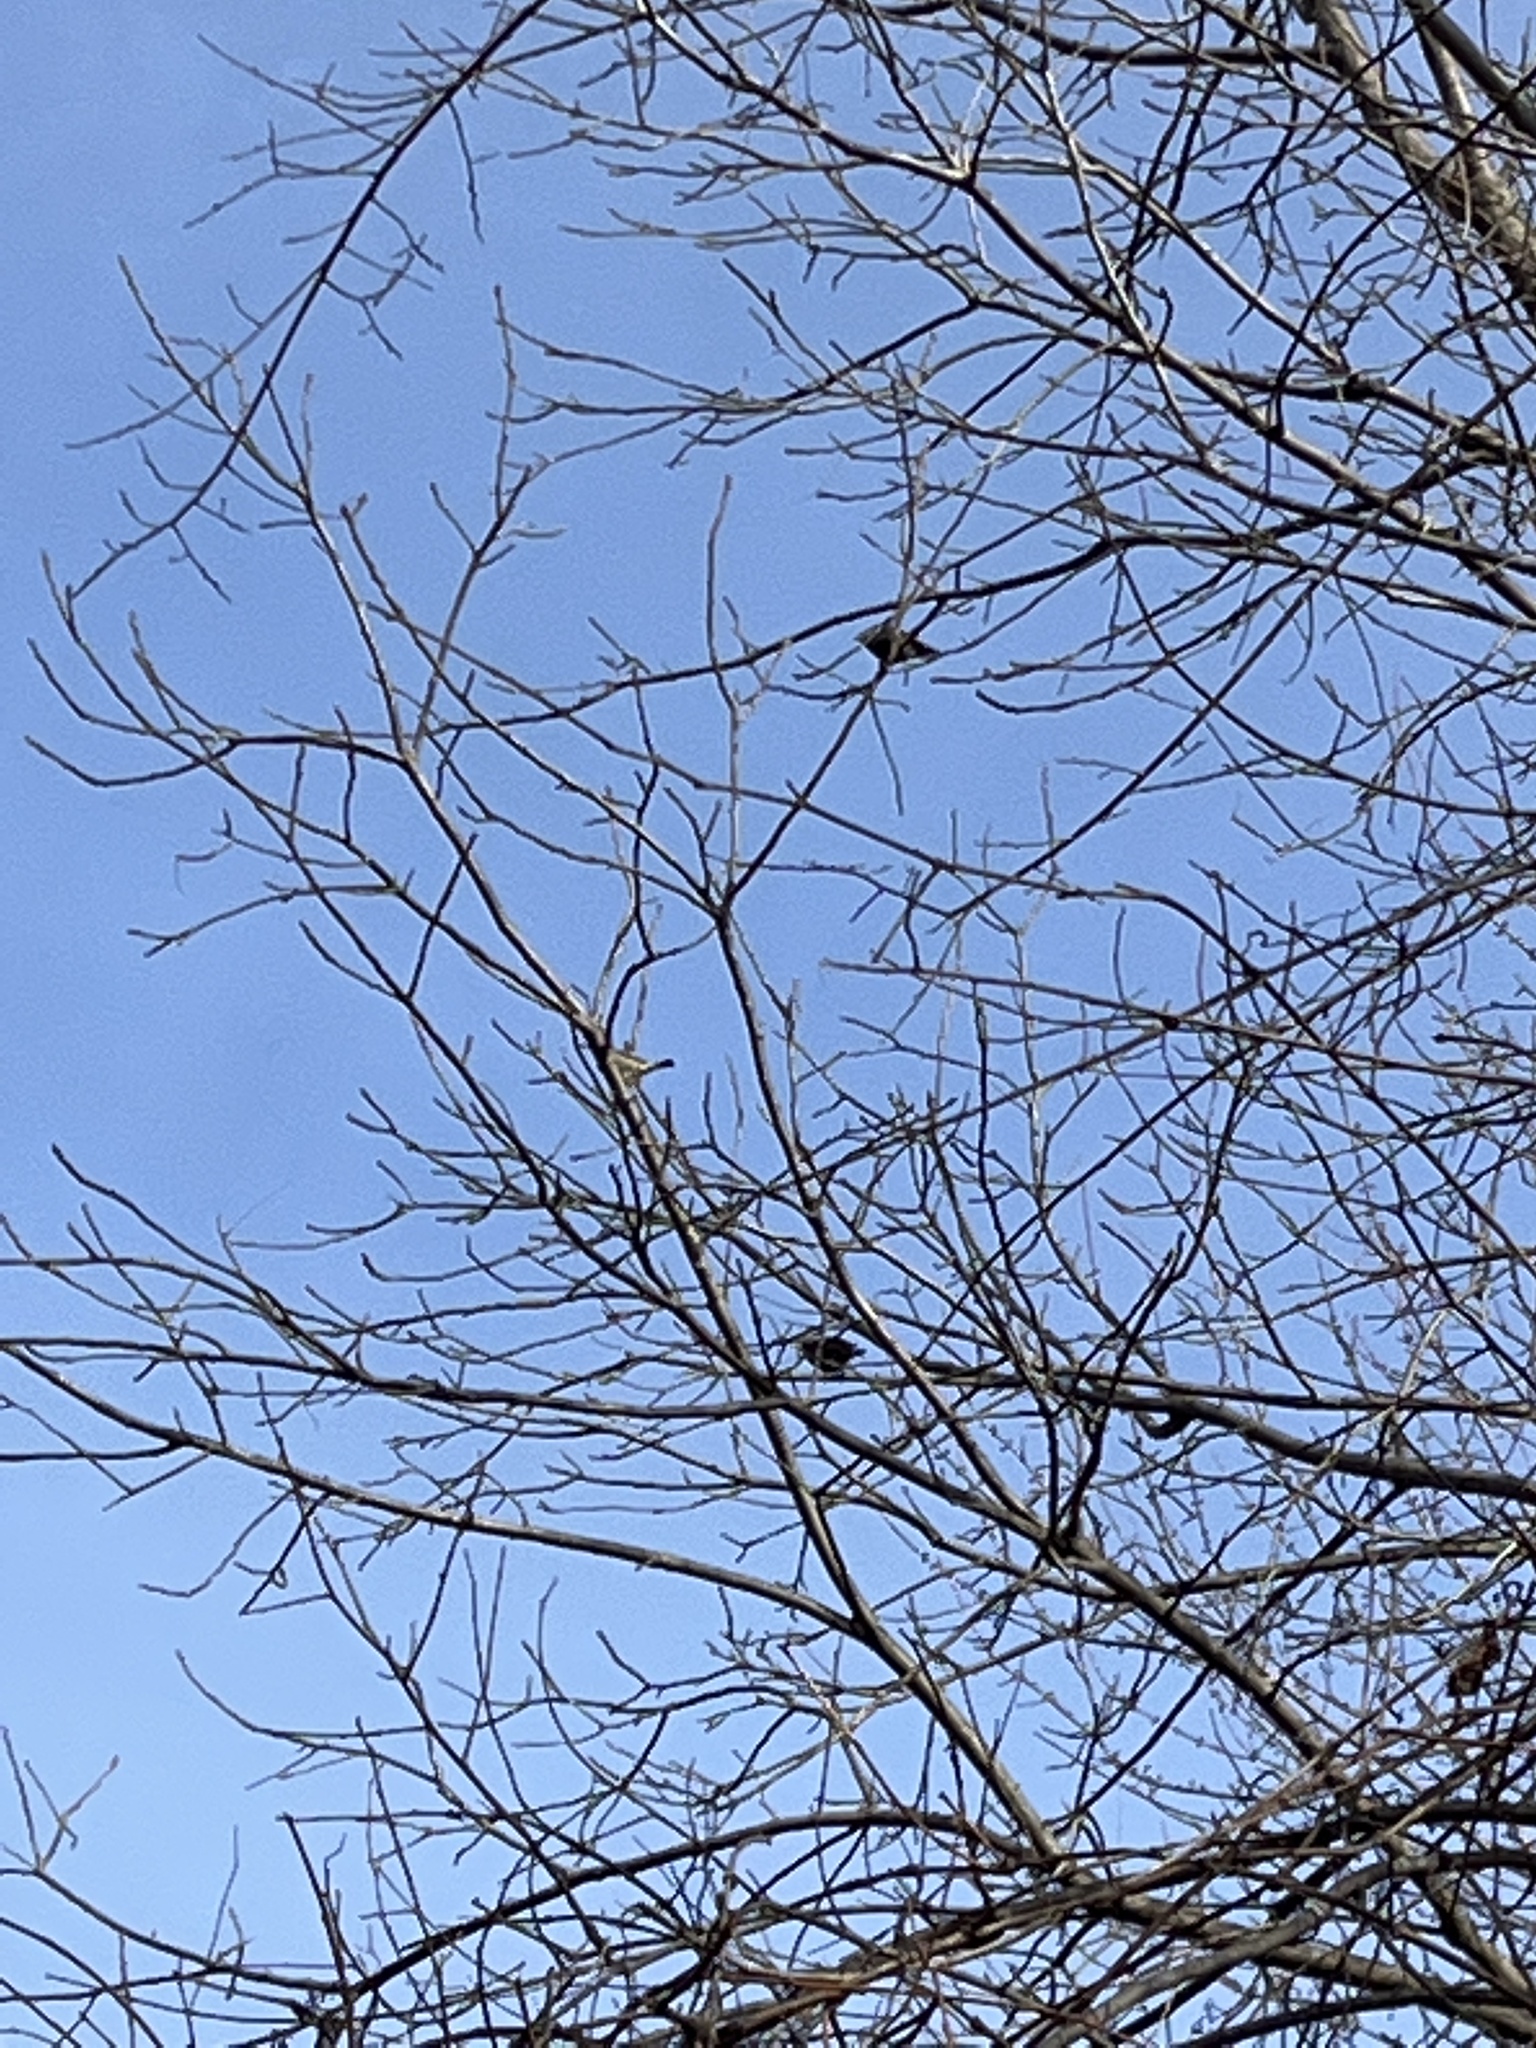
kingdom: Animalia
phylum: Chordata
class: Aves
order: Passeriformes
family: Sturnidae
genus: Sturnus
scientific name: Sturnus vulgaris
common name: Common starling
